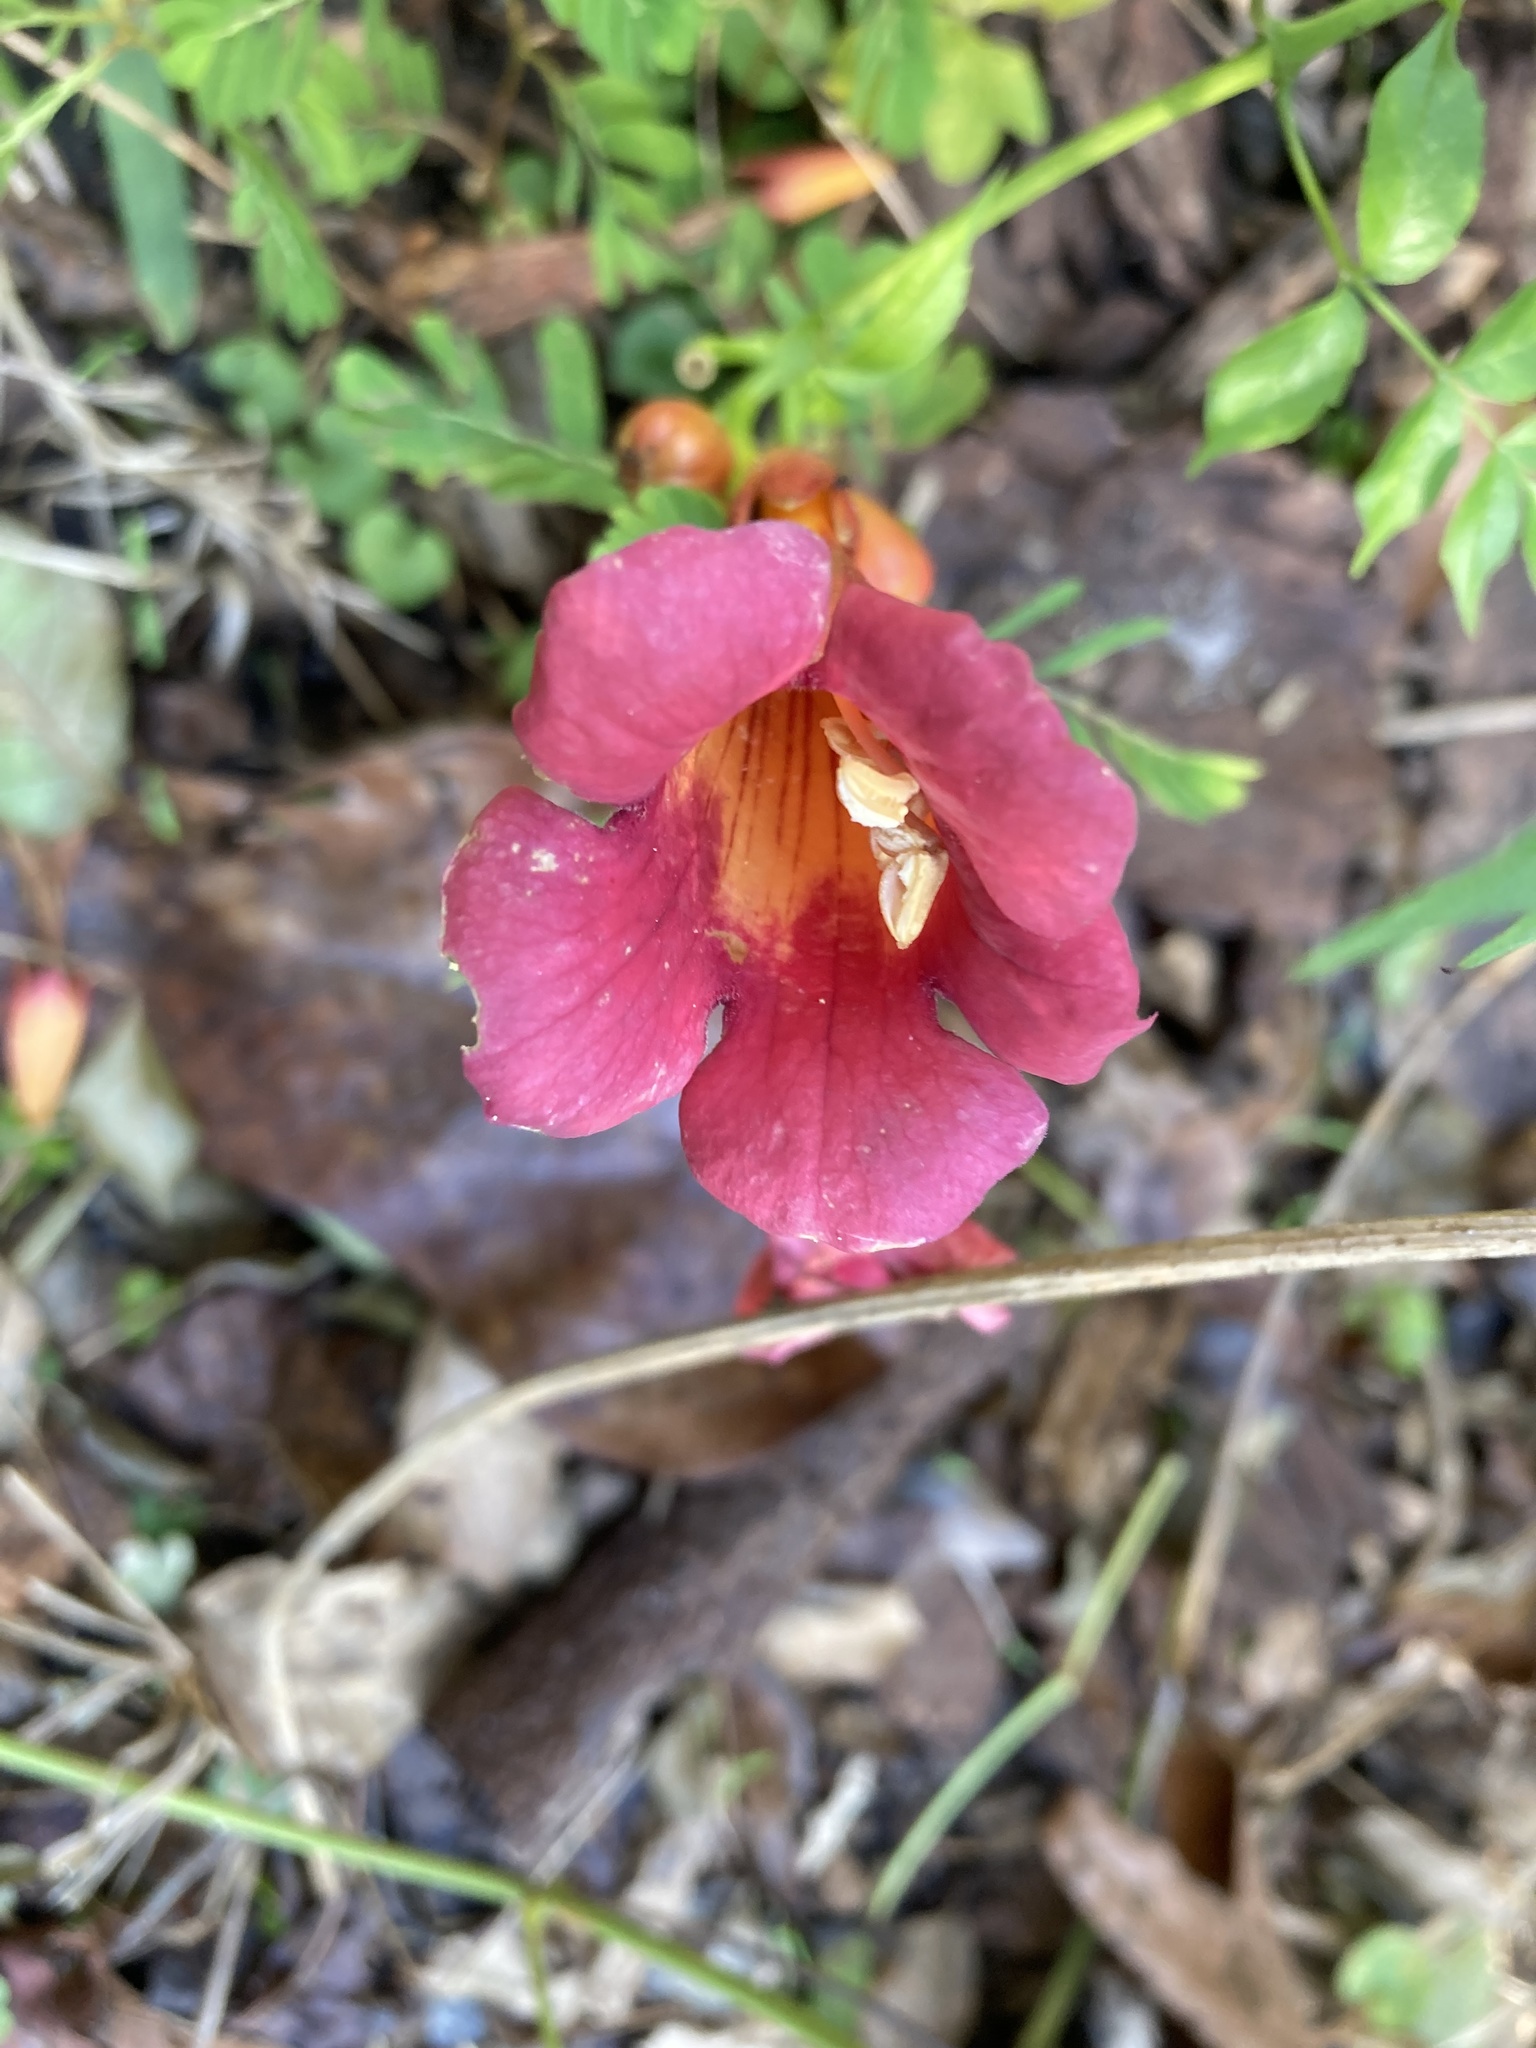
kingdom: Plantae
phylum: Tracheophyta
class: Magnoliopsida
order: Lamiales
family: Bignoniaceae
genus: Campsis
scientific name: Campsis radicans
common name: Trumpet-creeper
